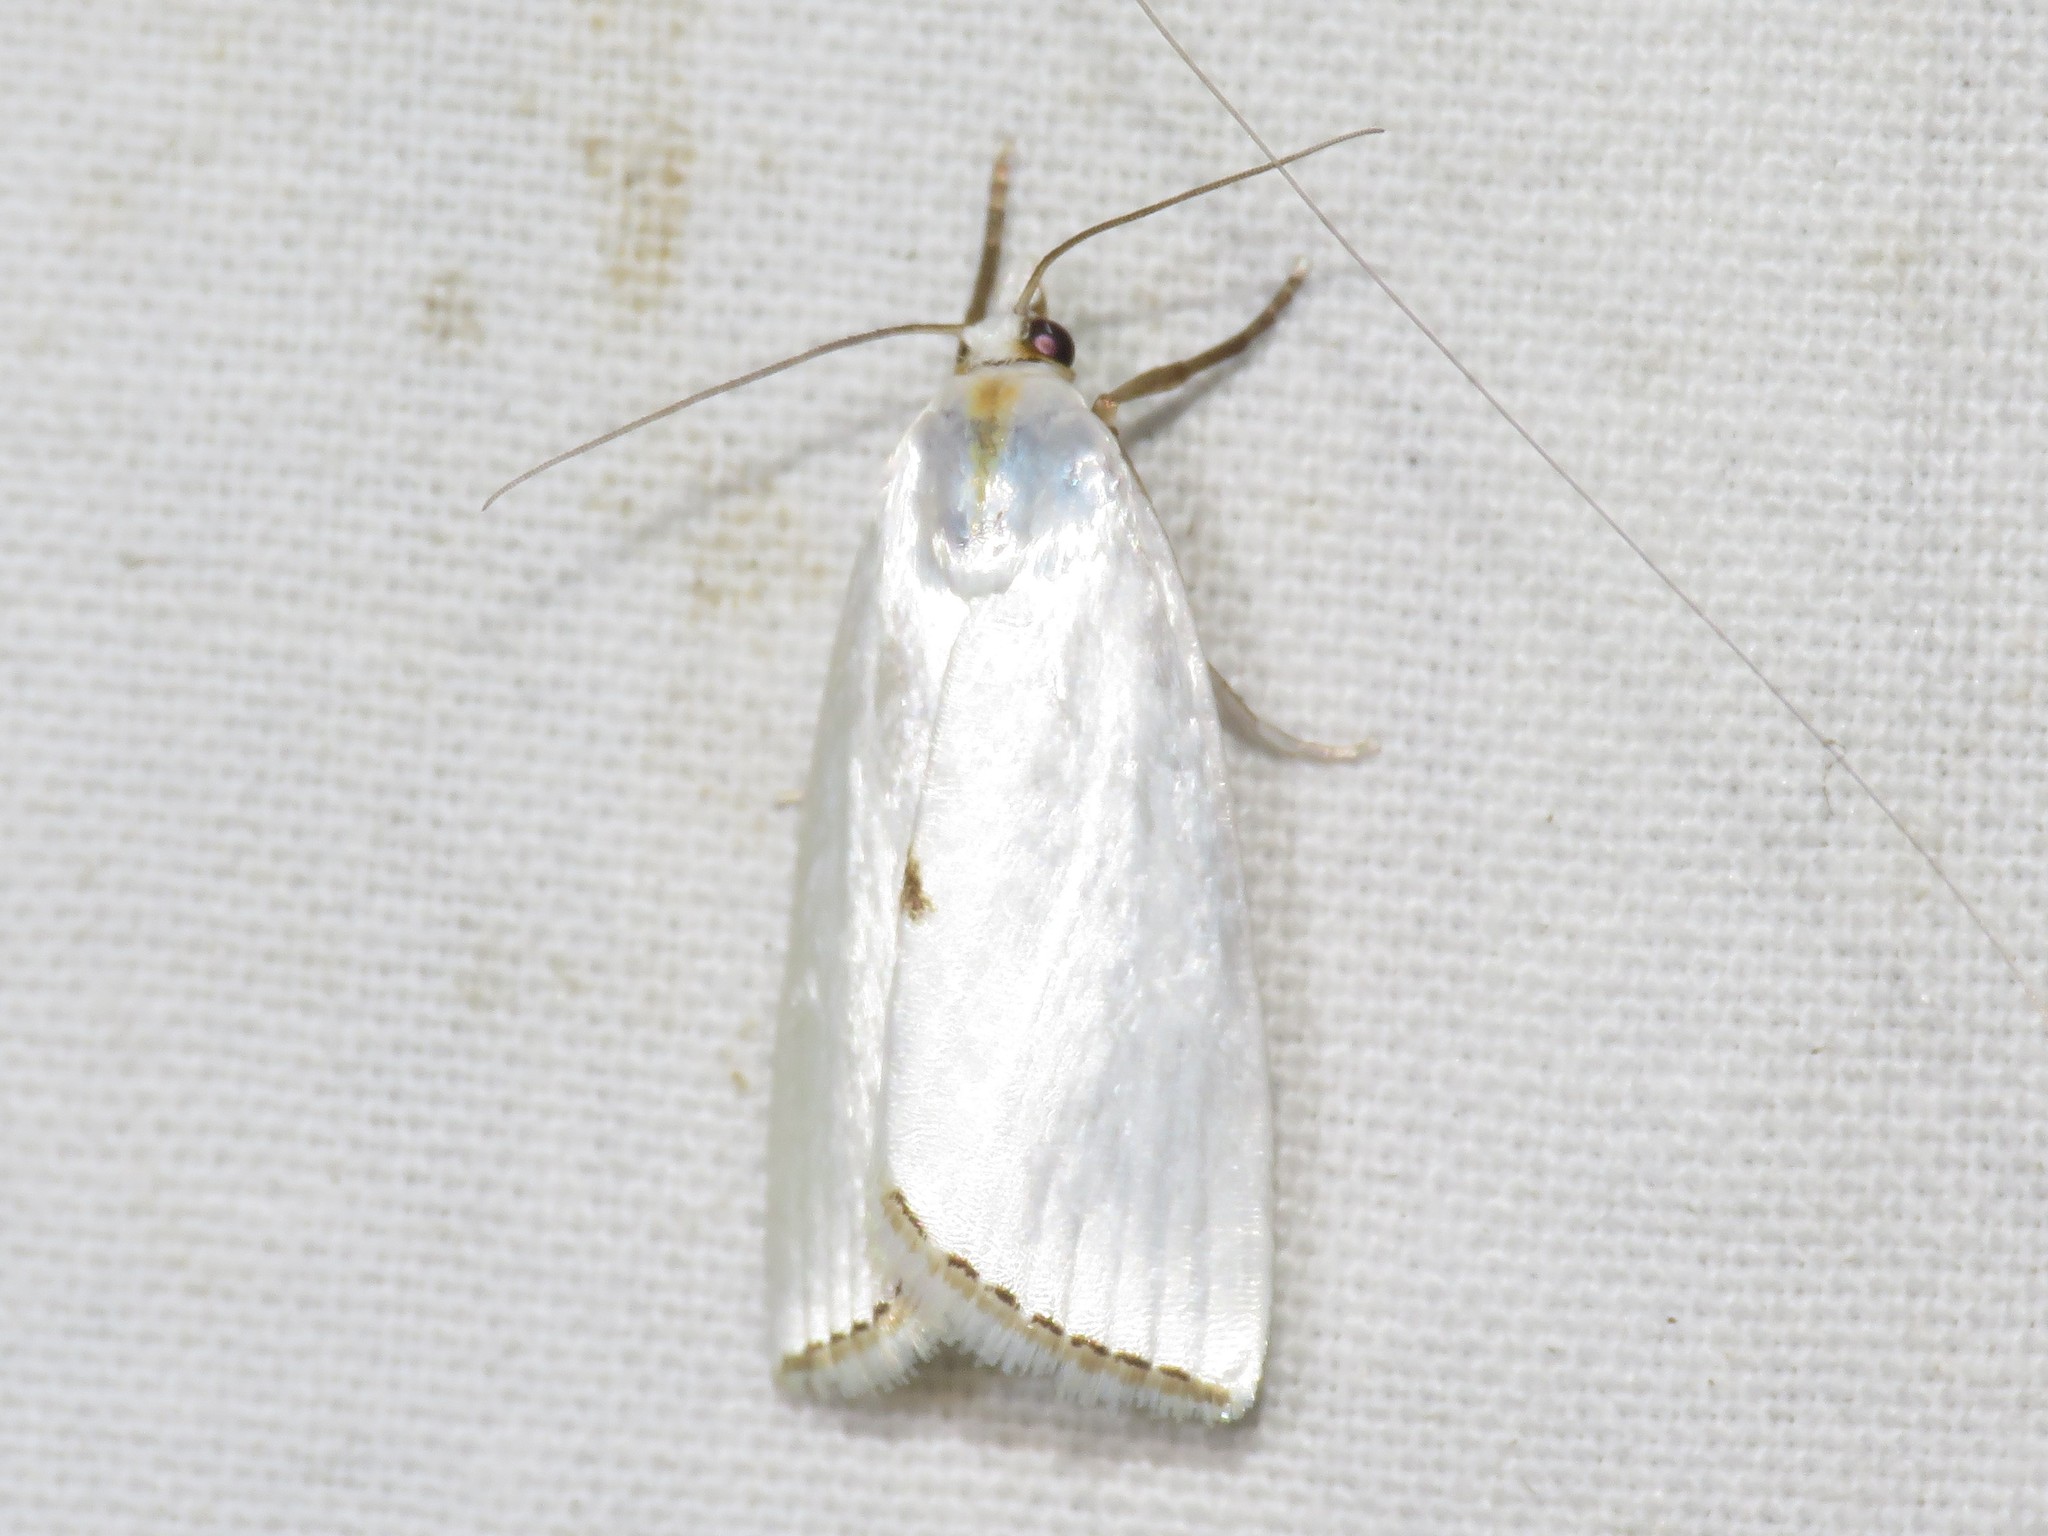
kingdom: Animalia
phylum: Arthropoda
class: Insecta
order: Lepidoptera
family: Crambidae
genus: Argyria
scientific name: Argyria nivalis
